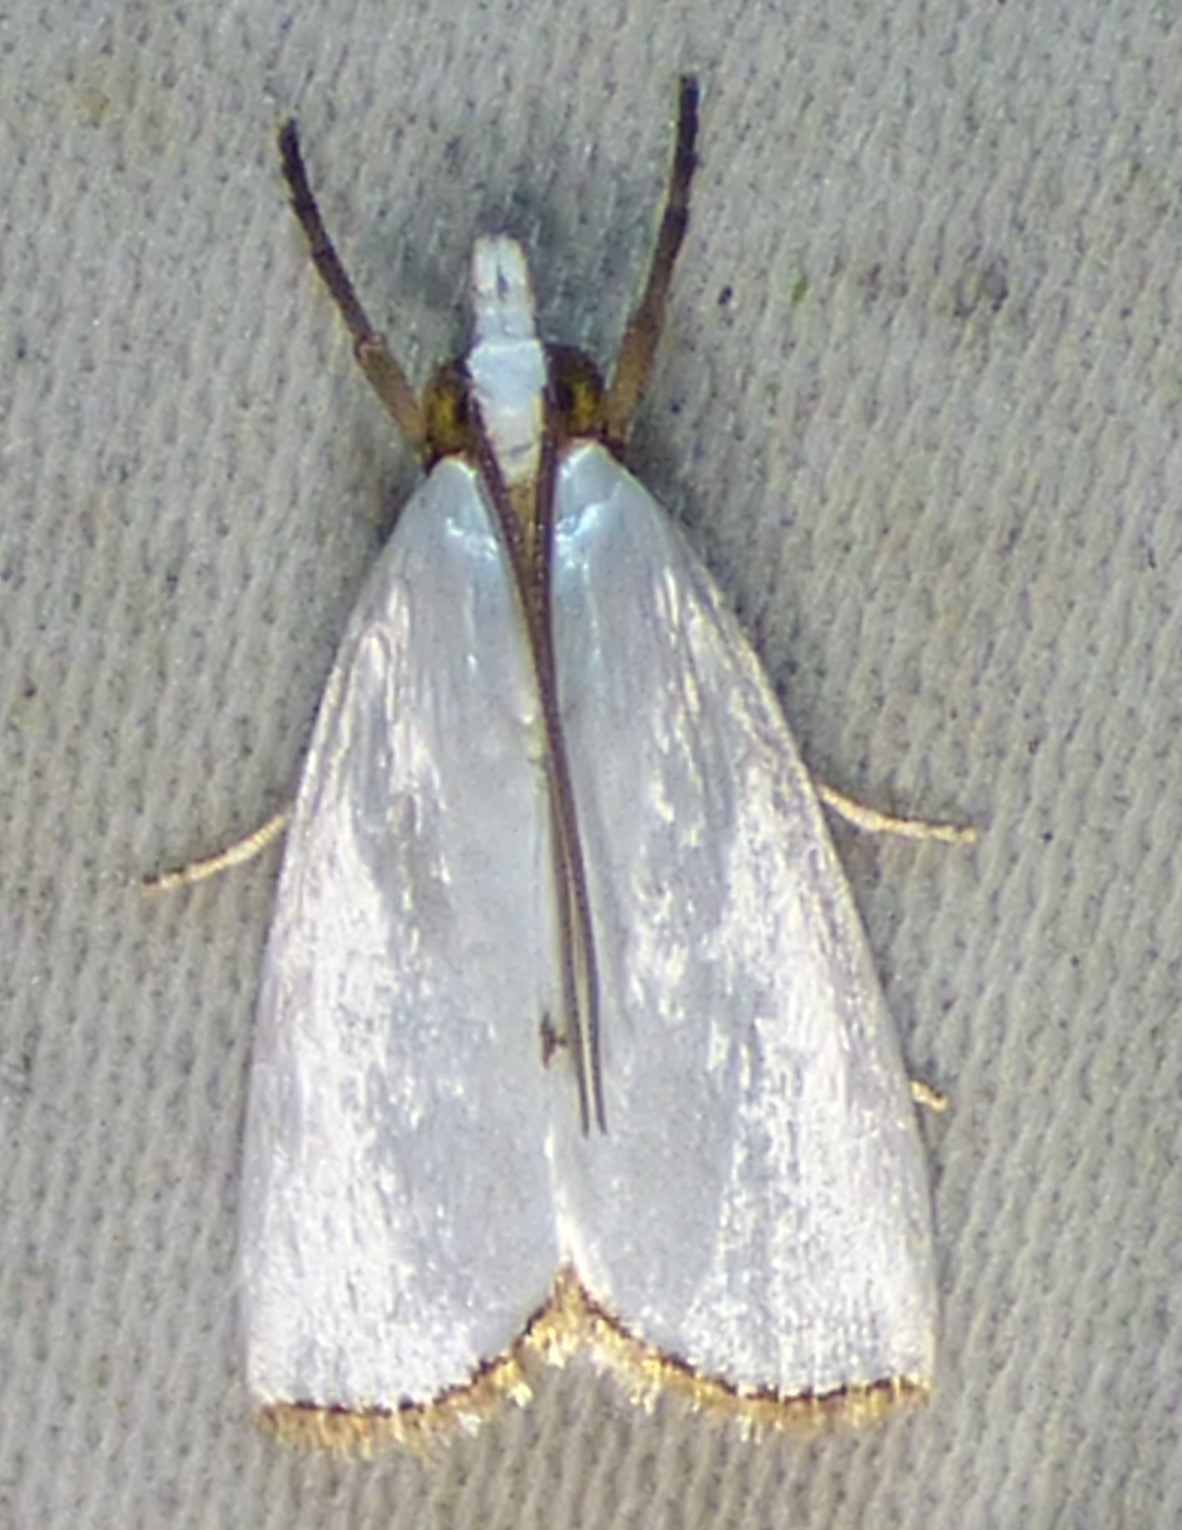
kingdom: Animalia
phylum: Arthropoda
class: Insecta
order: Lepidoptera
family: Crambidae
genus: Argyria
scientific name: Argyria nivalis
